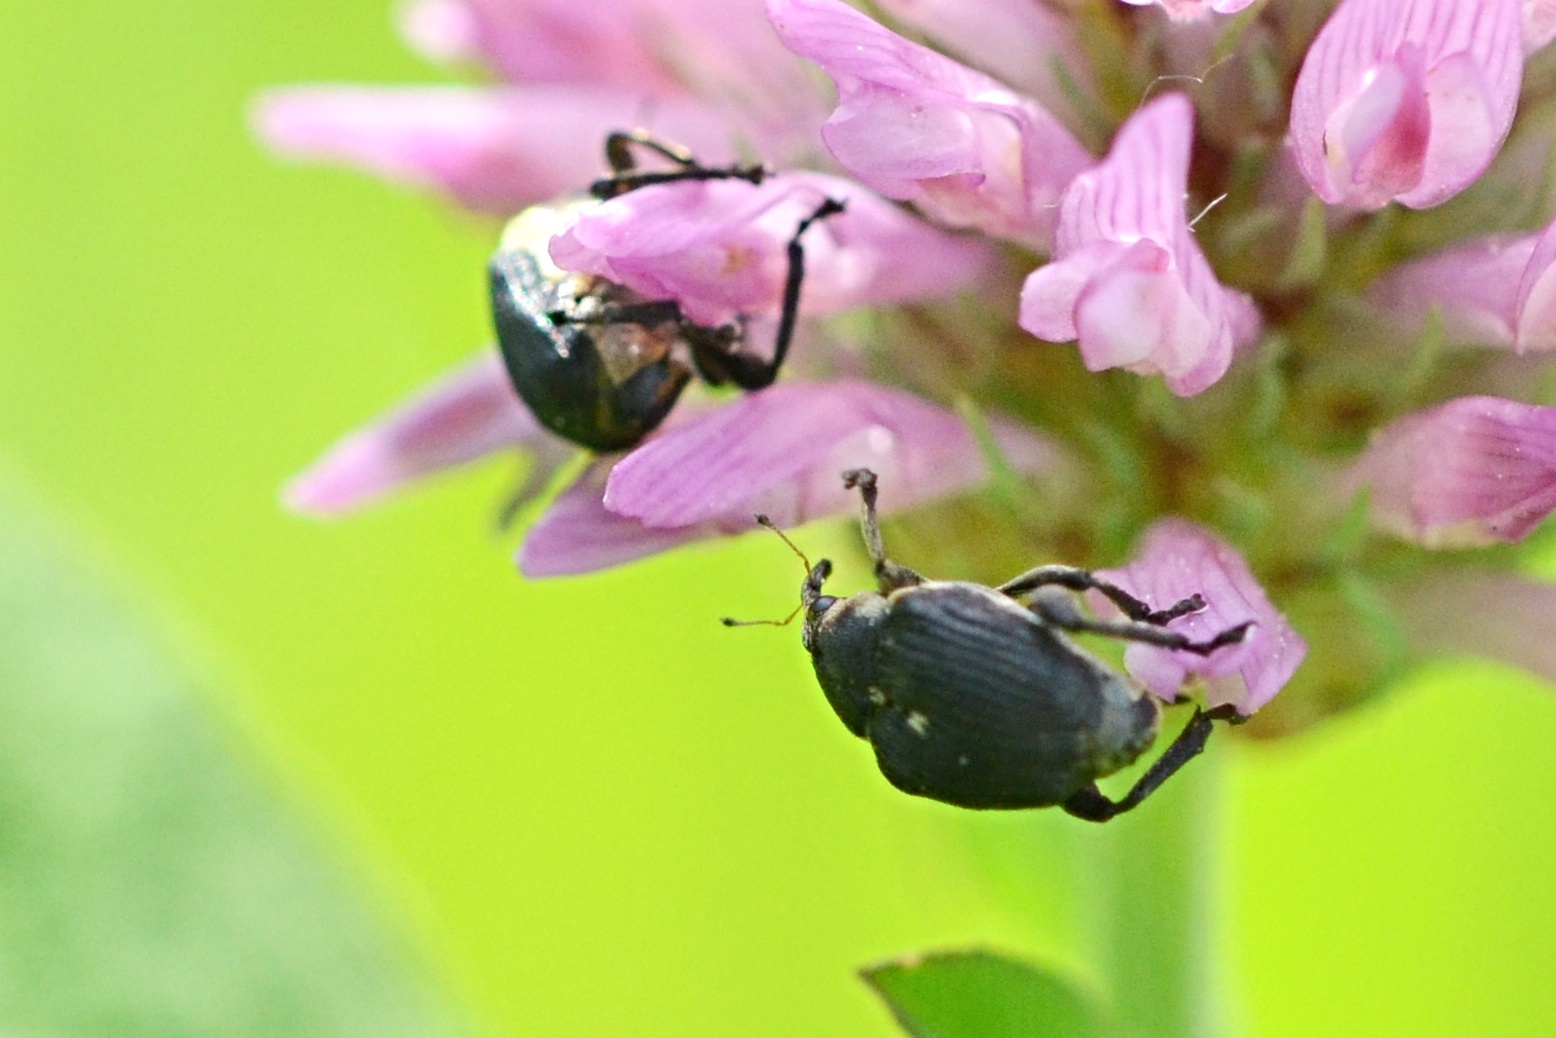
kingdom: Animalia
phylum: Arthropoda
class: Insecta
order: Coleoptera
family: Curculionidae
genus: Mononychus
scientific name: Mononychus punctumalbum
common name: Iris weevil
